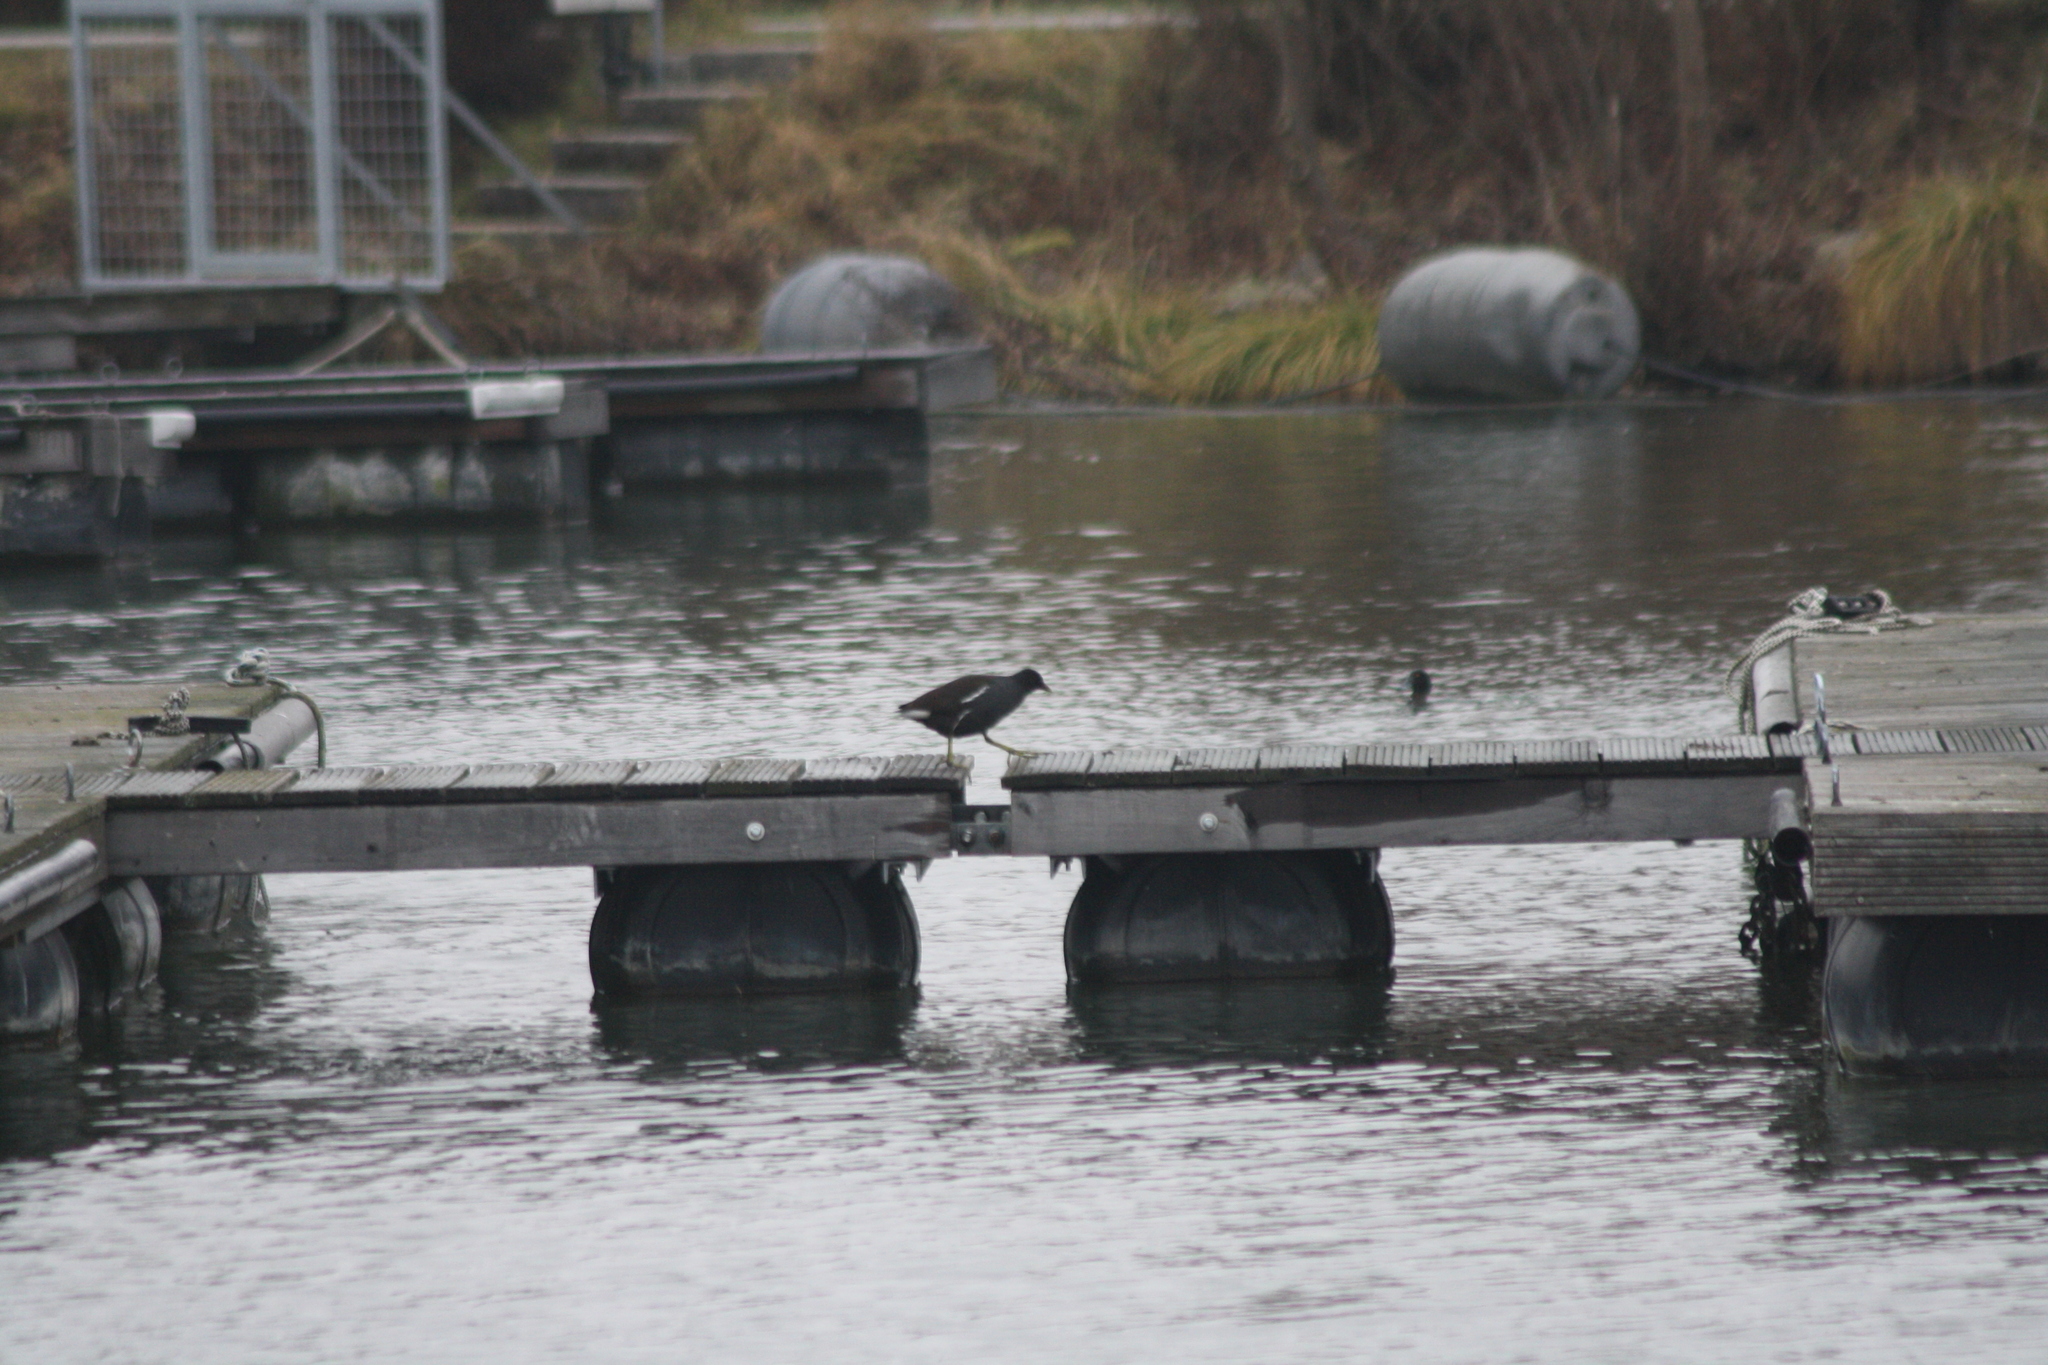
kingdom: Animalia
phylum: Chordata
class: Aves
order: Gruiformes
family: Rallidae
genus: Gallinula
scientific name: Gallinula chloropus
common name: Common moorhen
